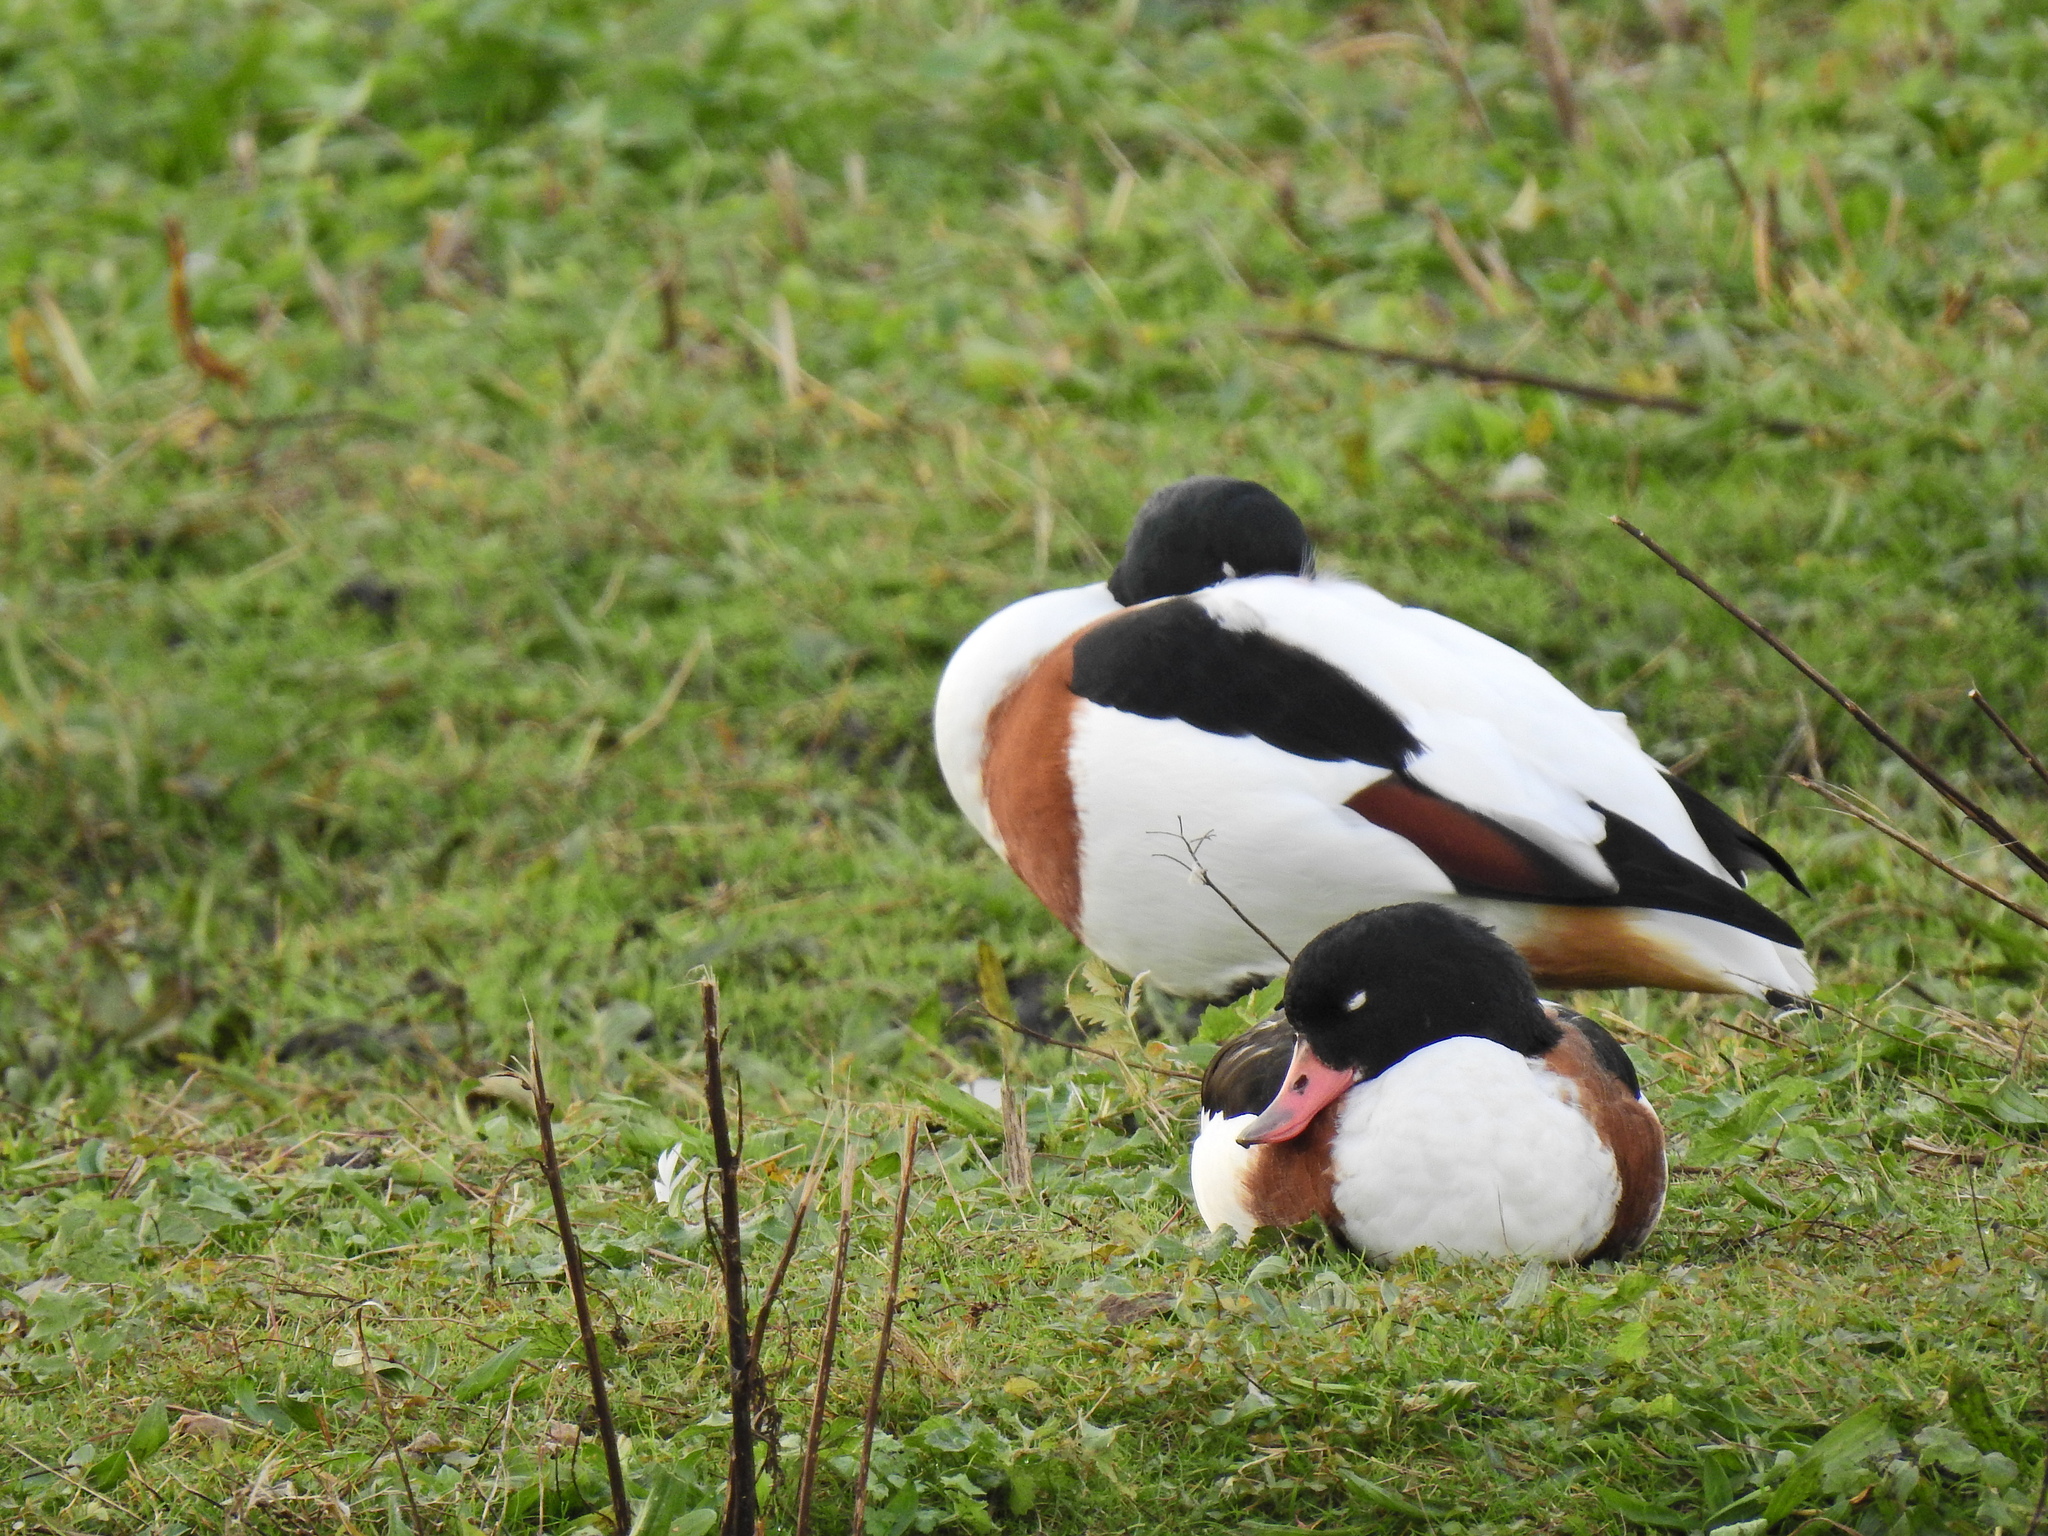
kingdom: Animalia
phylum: Chordata
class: Aves
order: Anseriformes
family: Anatidae
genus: Tadorna
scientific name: Tadorna tadorna
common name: Common shelduck
